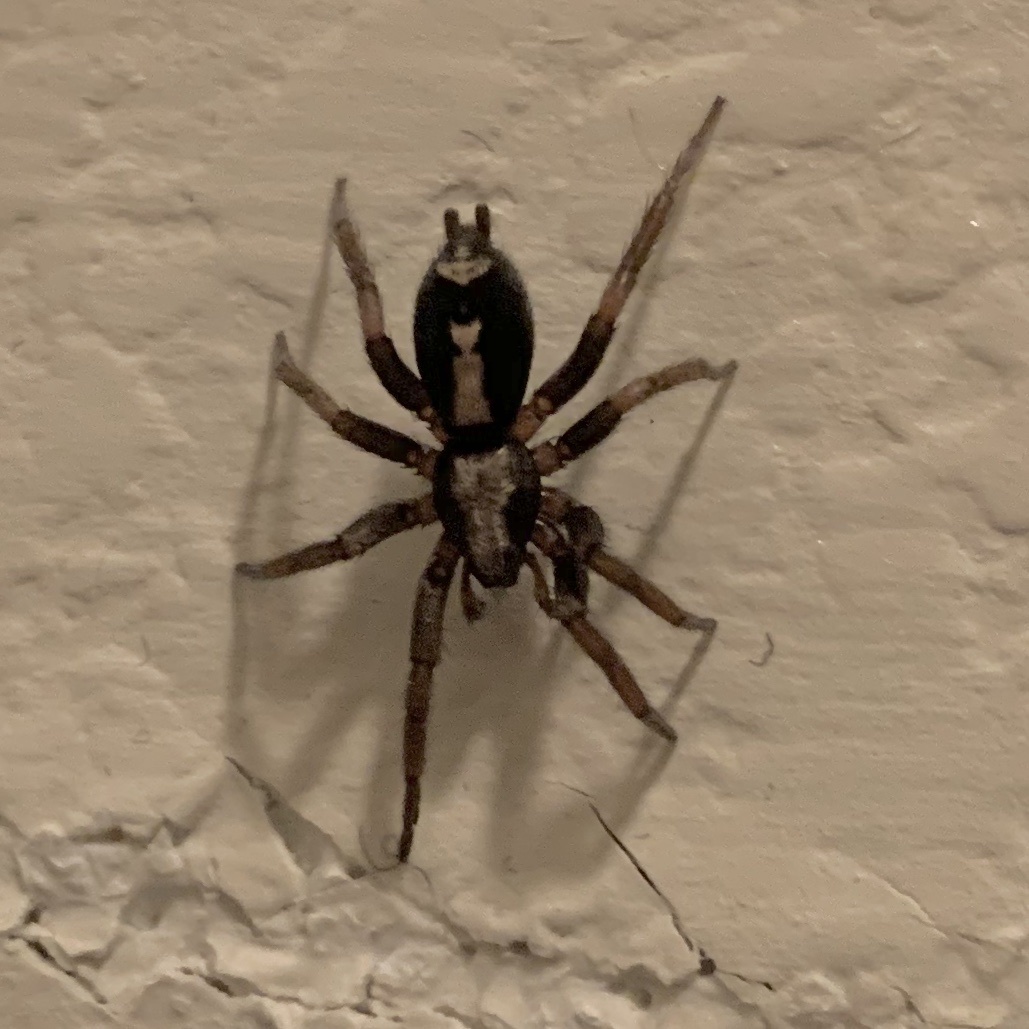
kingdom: Animalia
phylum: Arthropoda
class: Arachnida
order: Araneae
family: Gnaphosidae
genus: Herpyllus
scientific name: Herpyllus ecclesiasticus
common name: Eastern parson spider
